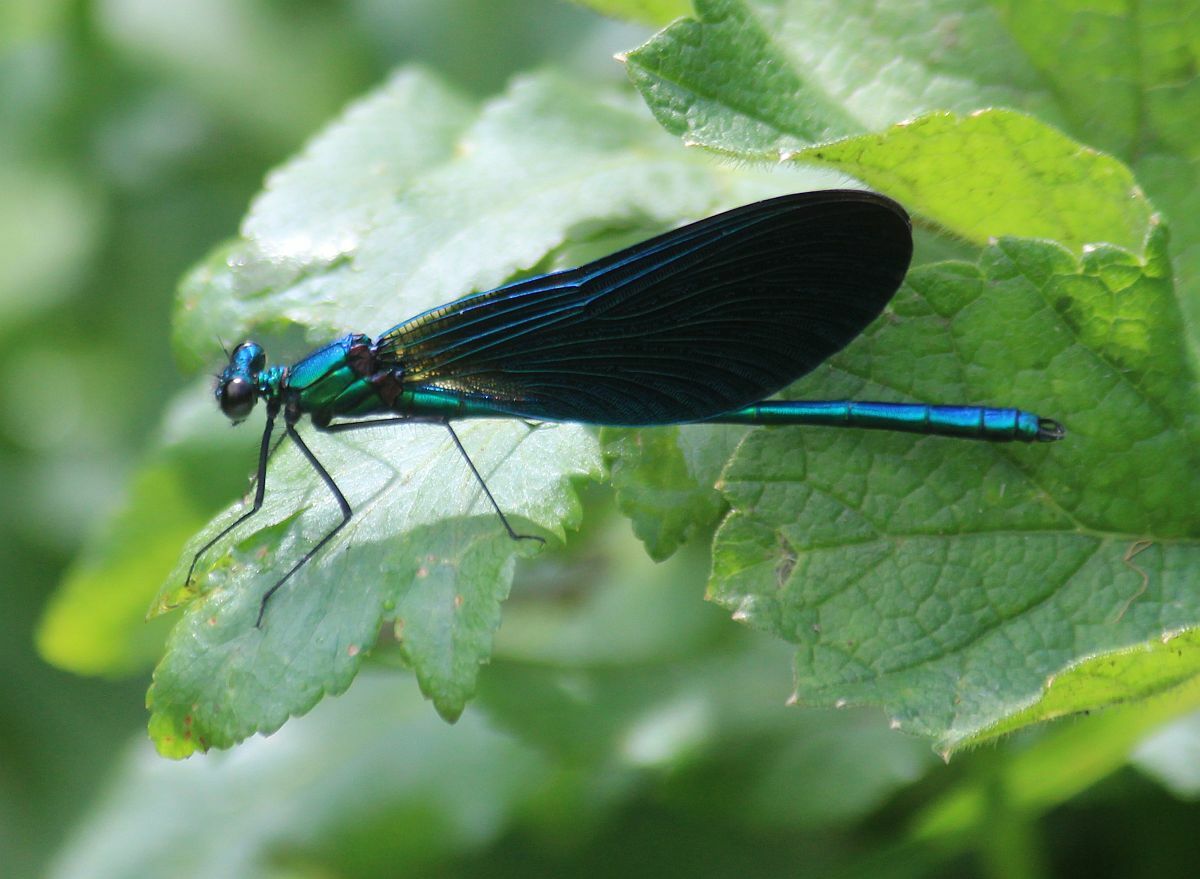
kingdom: Animalia
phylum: Arthropoda
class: Insecta
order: Odonata
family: Calopterygidae
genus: Calopteryx
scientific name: Calopteryx virgo
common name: Beautiful demoiselle
